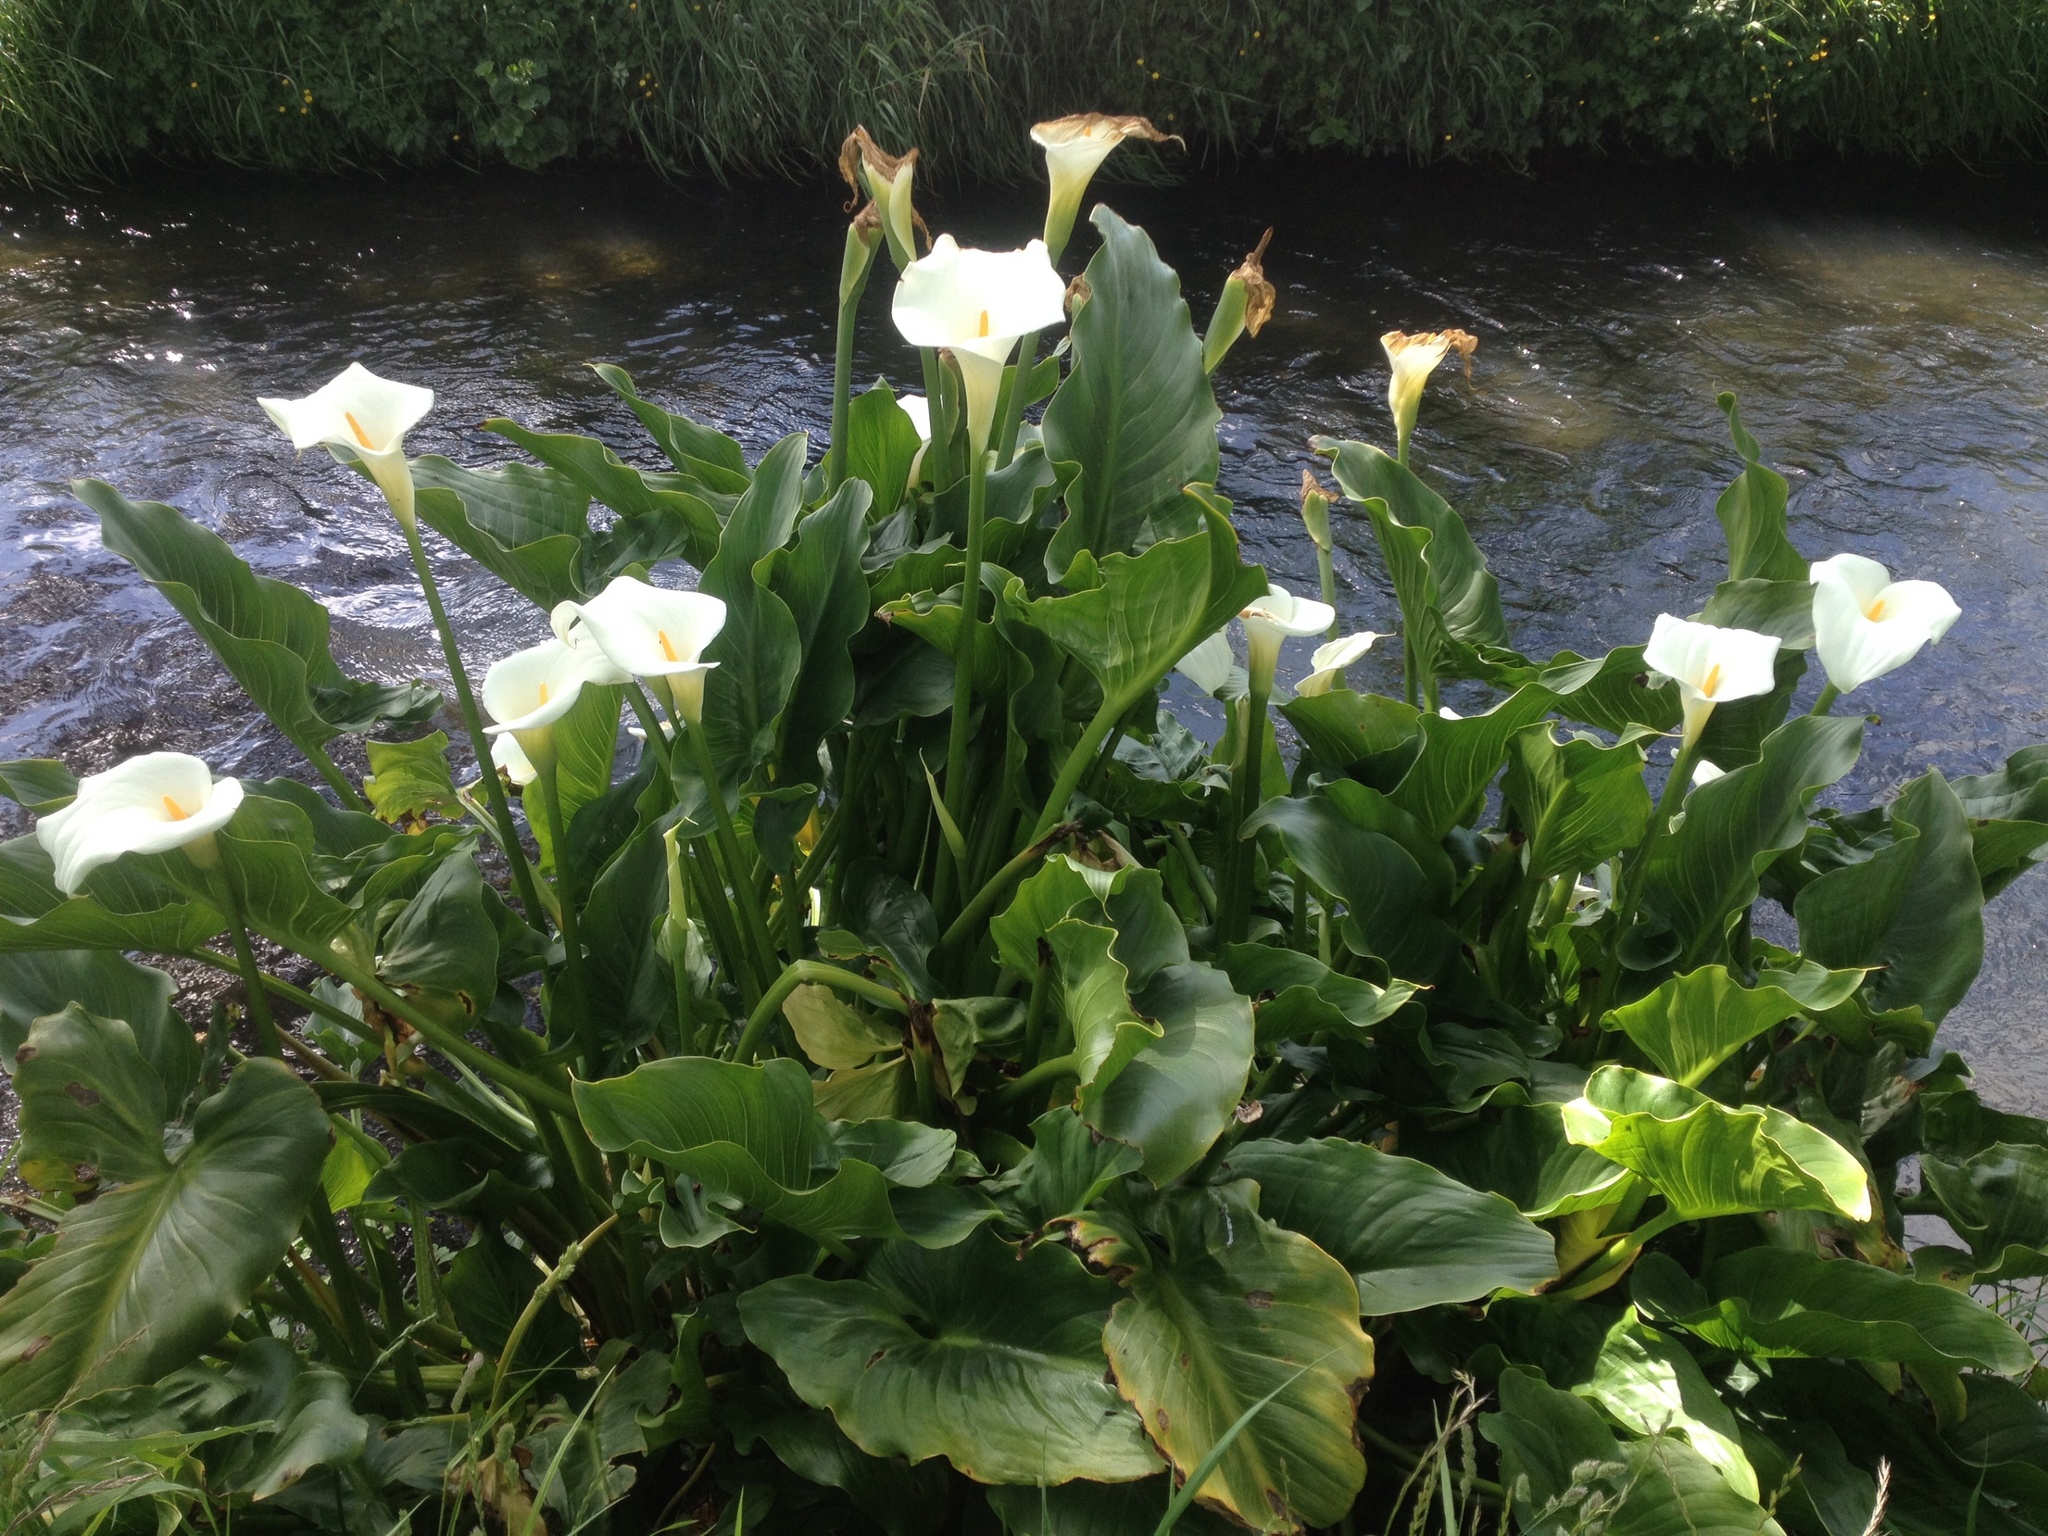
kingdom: Plantae
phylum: Tracheophyta
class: Liliopsida
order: Alismatales
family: Araceae
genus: Zantedeschia
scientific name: Zantedeschia aethiopica
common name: Altar-lily
